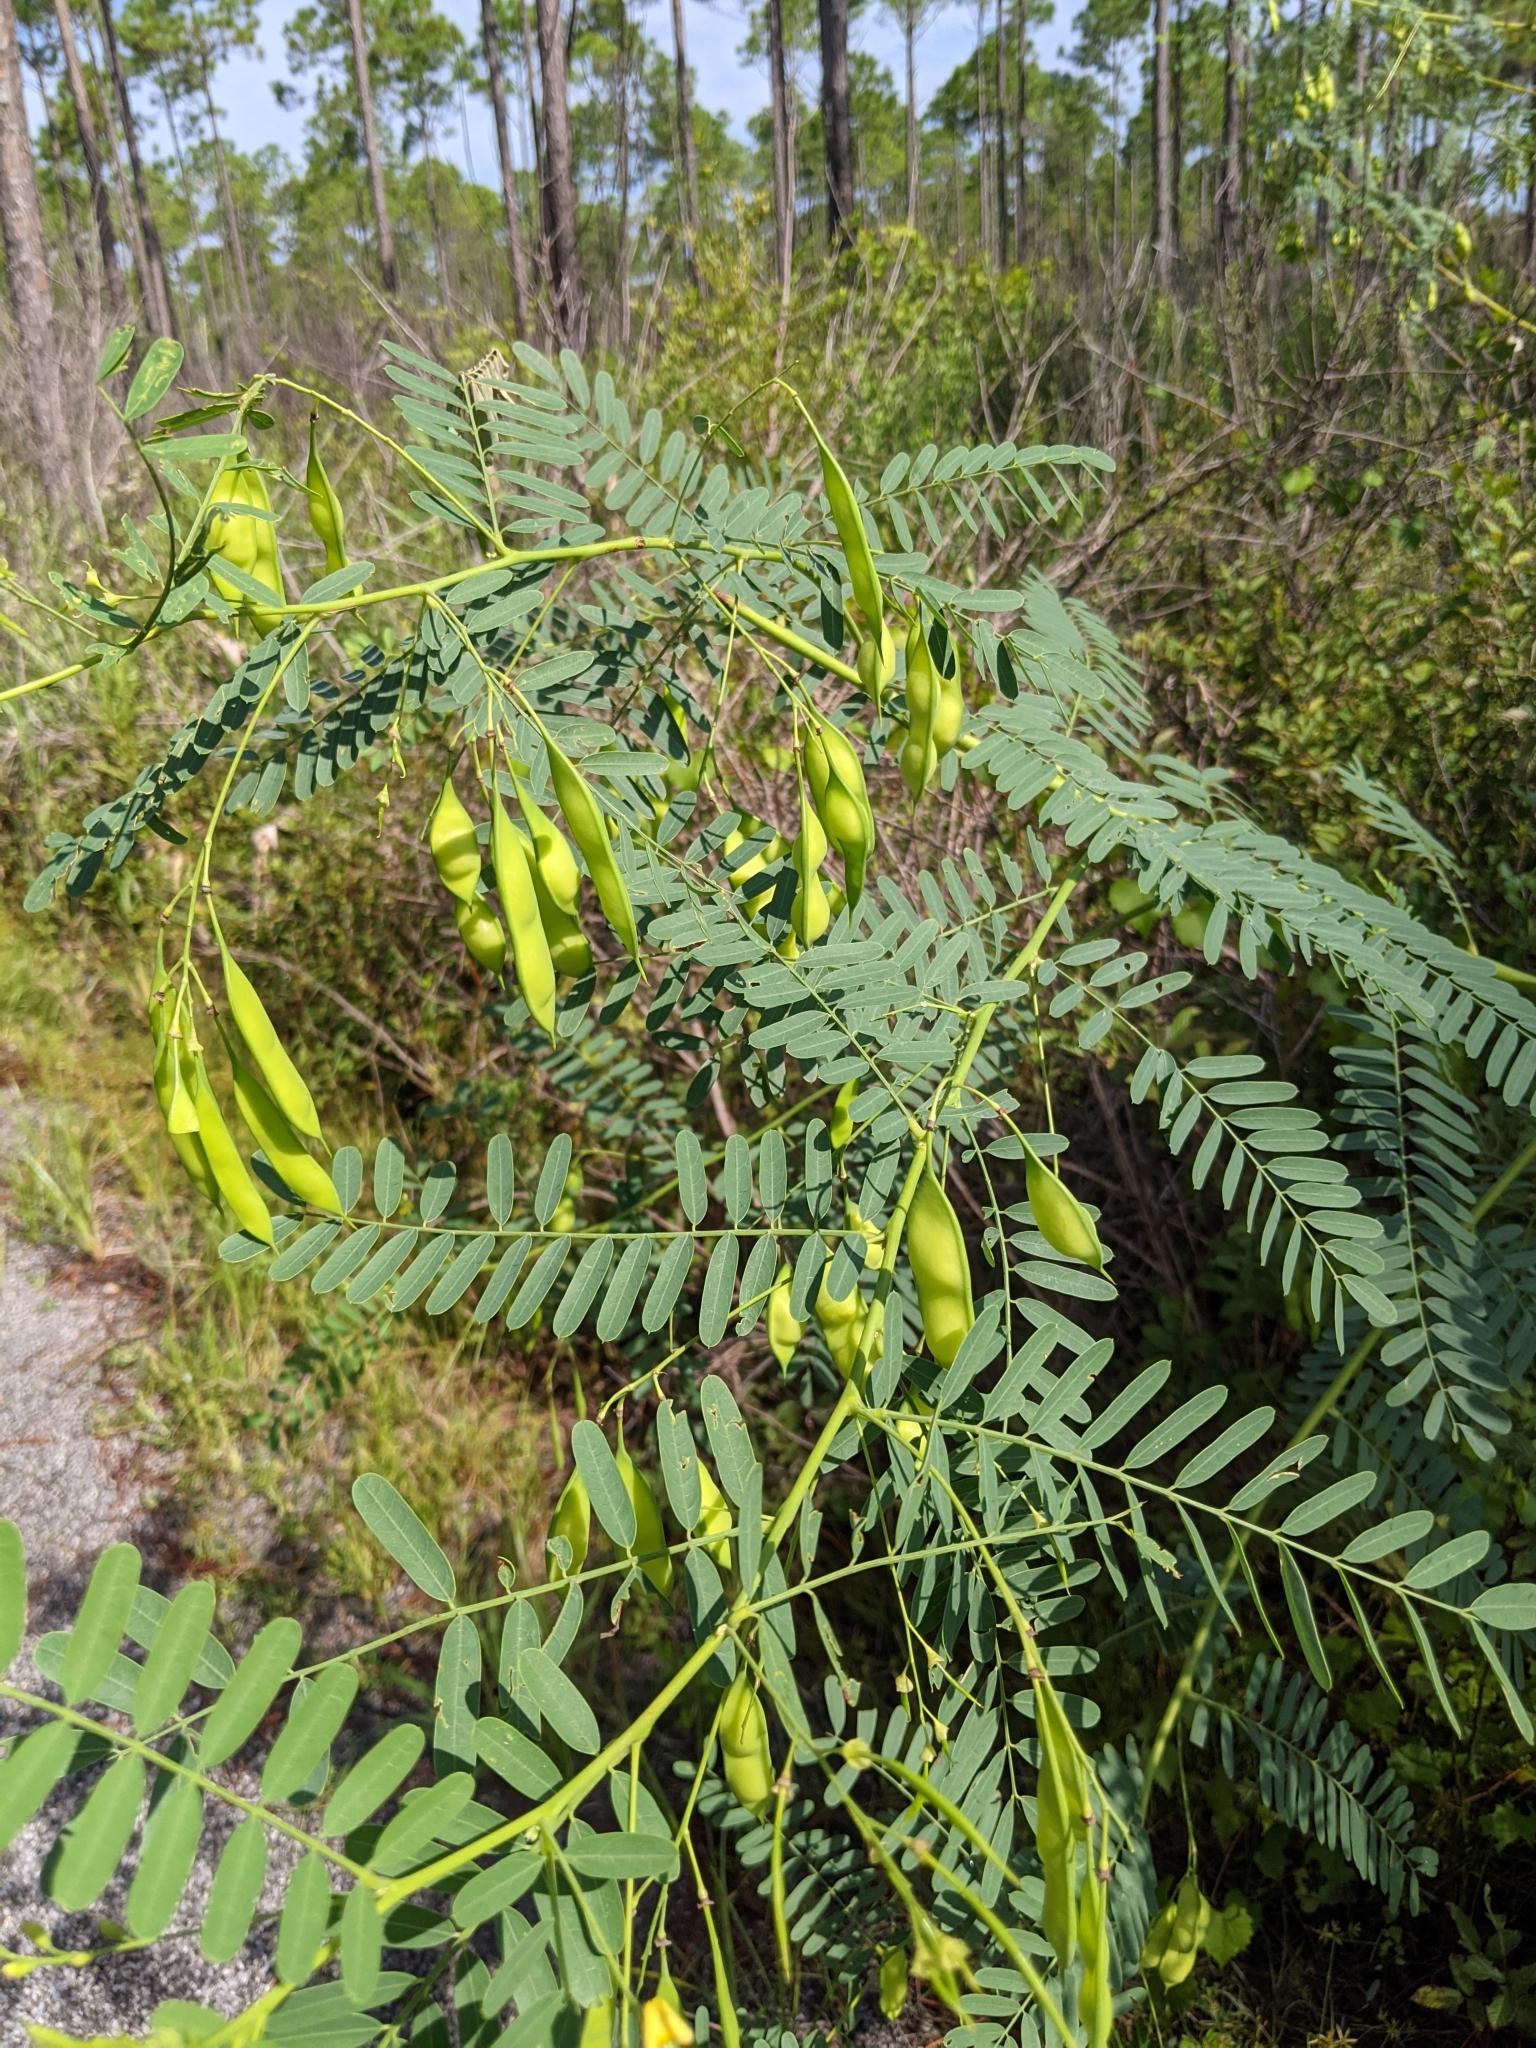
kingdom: Plantae
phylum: Tracheophyta
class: Magnoliopsida
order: Fabales
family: Fabaceae
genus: Sesbania
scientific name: Sesbania vesicaria
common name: Bagpod
